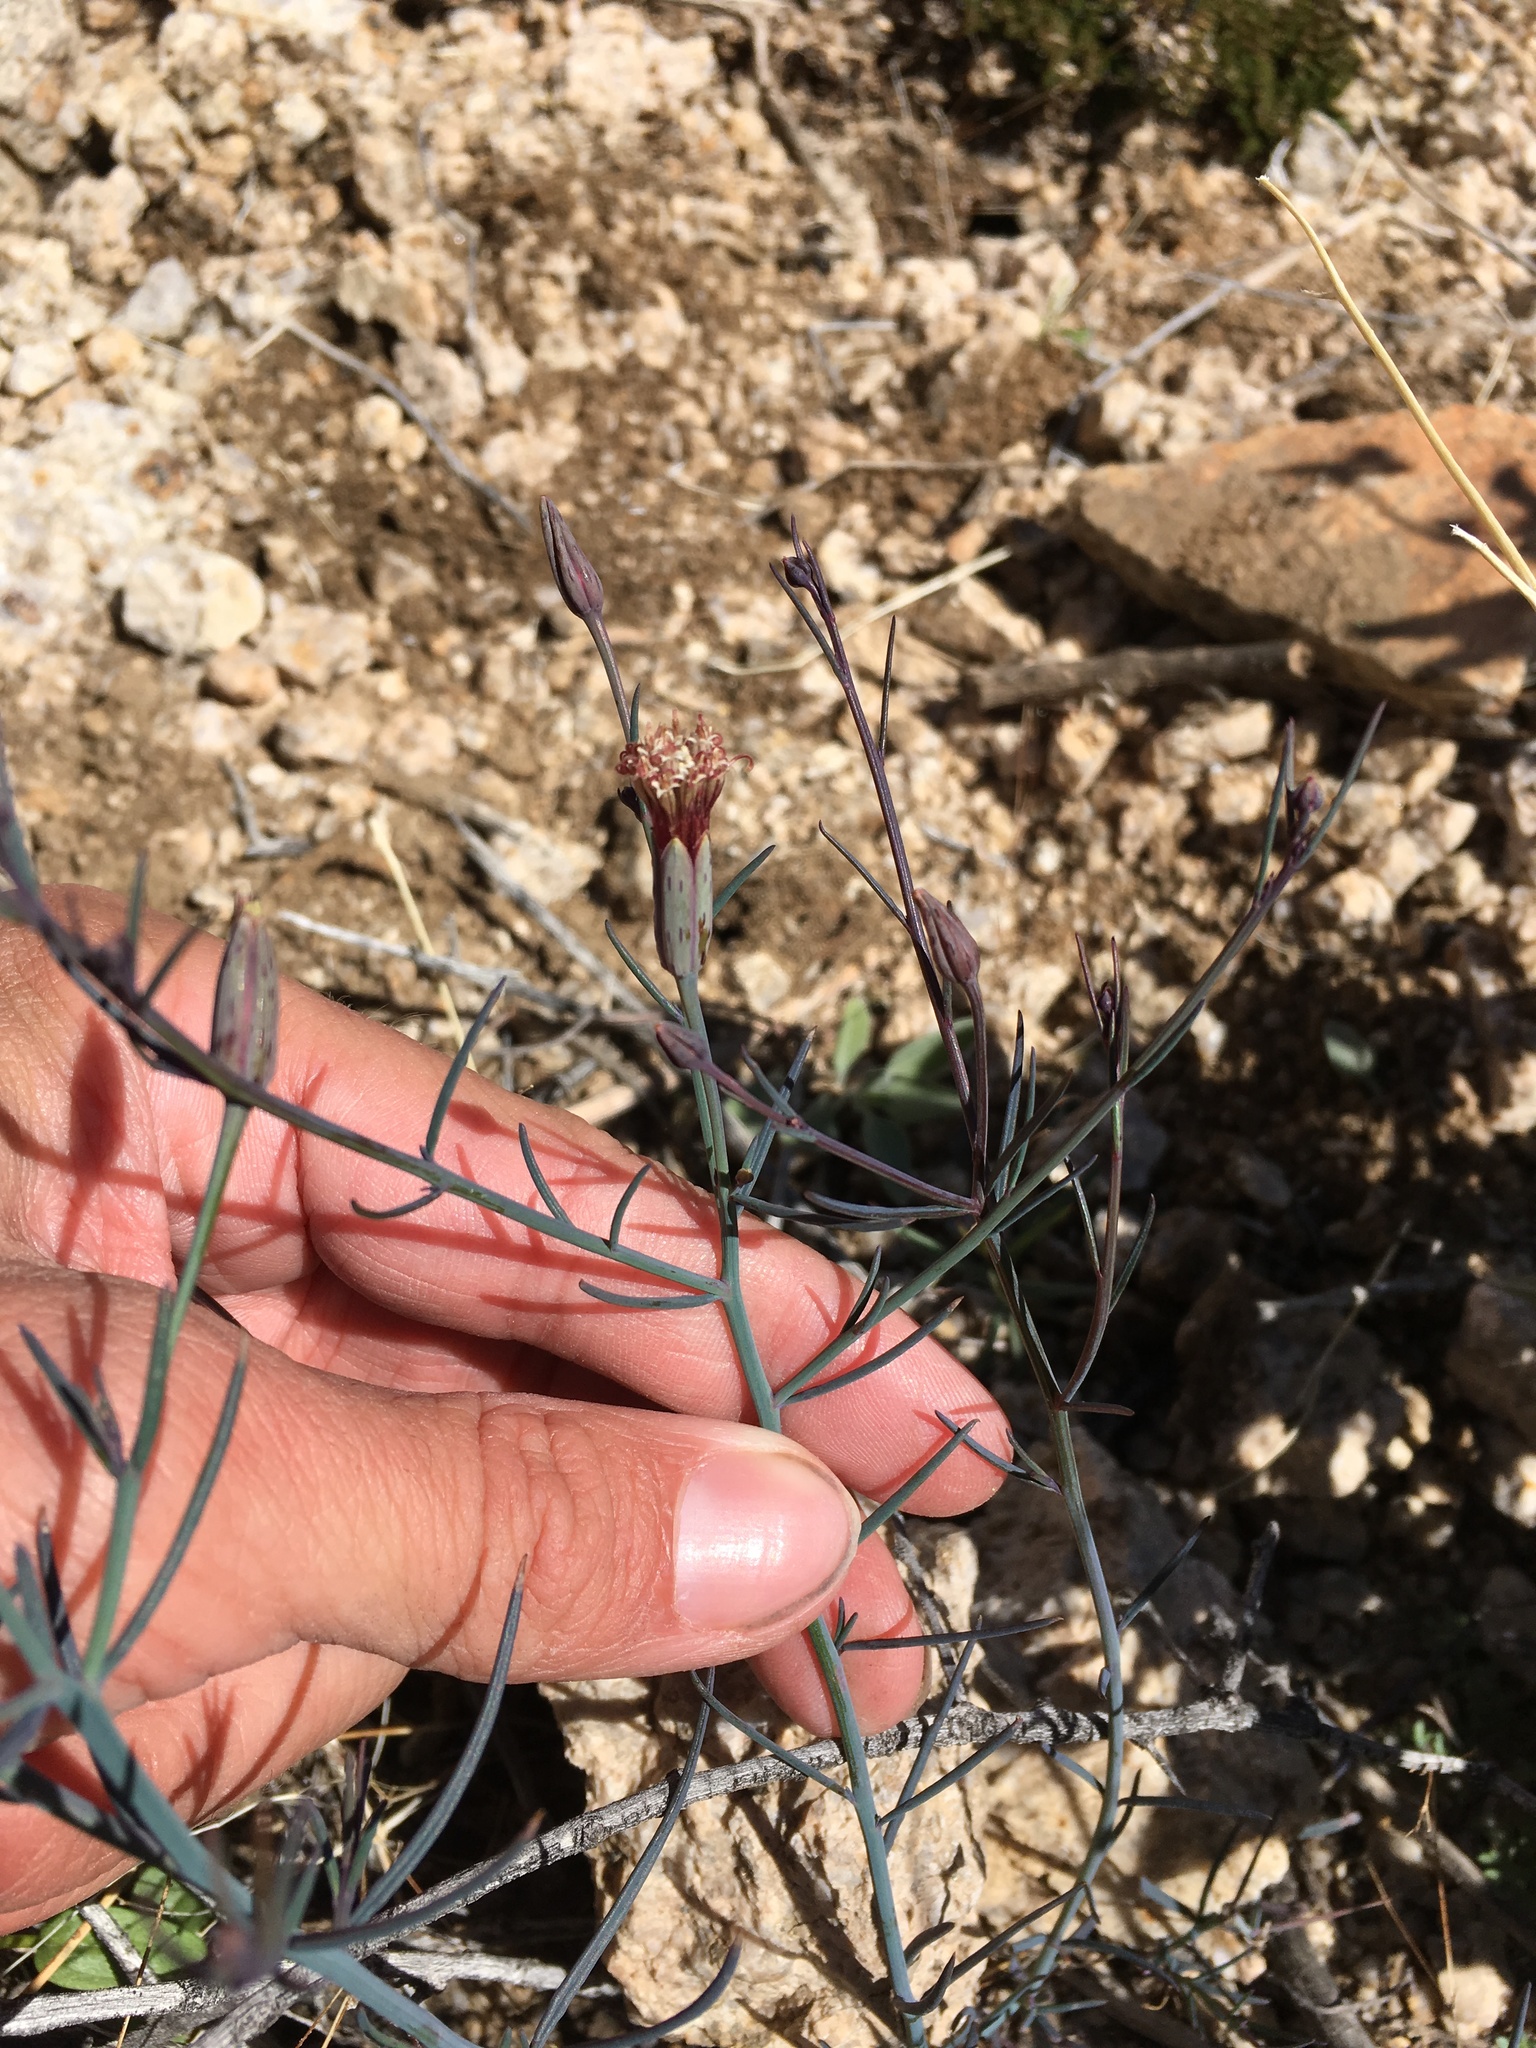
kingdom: Plantae
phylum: Tracheophyta
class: Magnoliopsida
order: Asterales
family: Asteraceae
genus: Porophyllum
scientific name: Porophyllum gracile
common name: Odora
